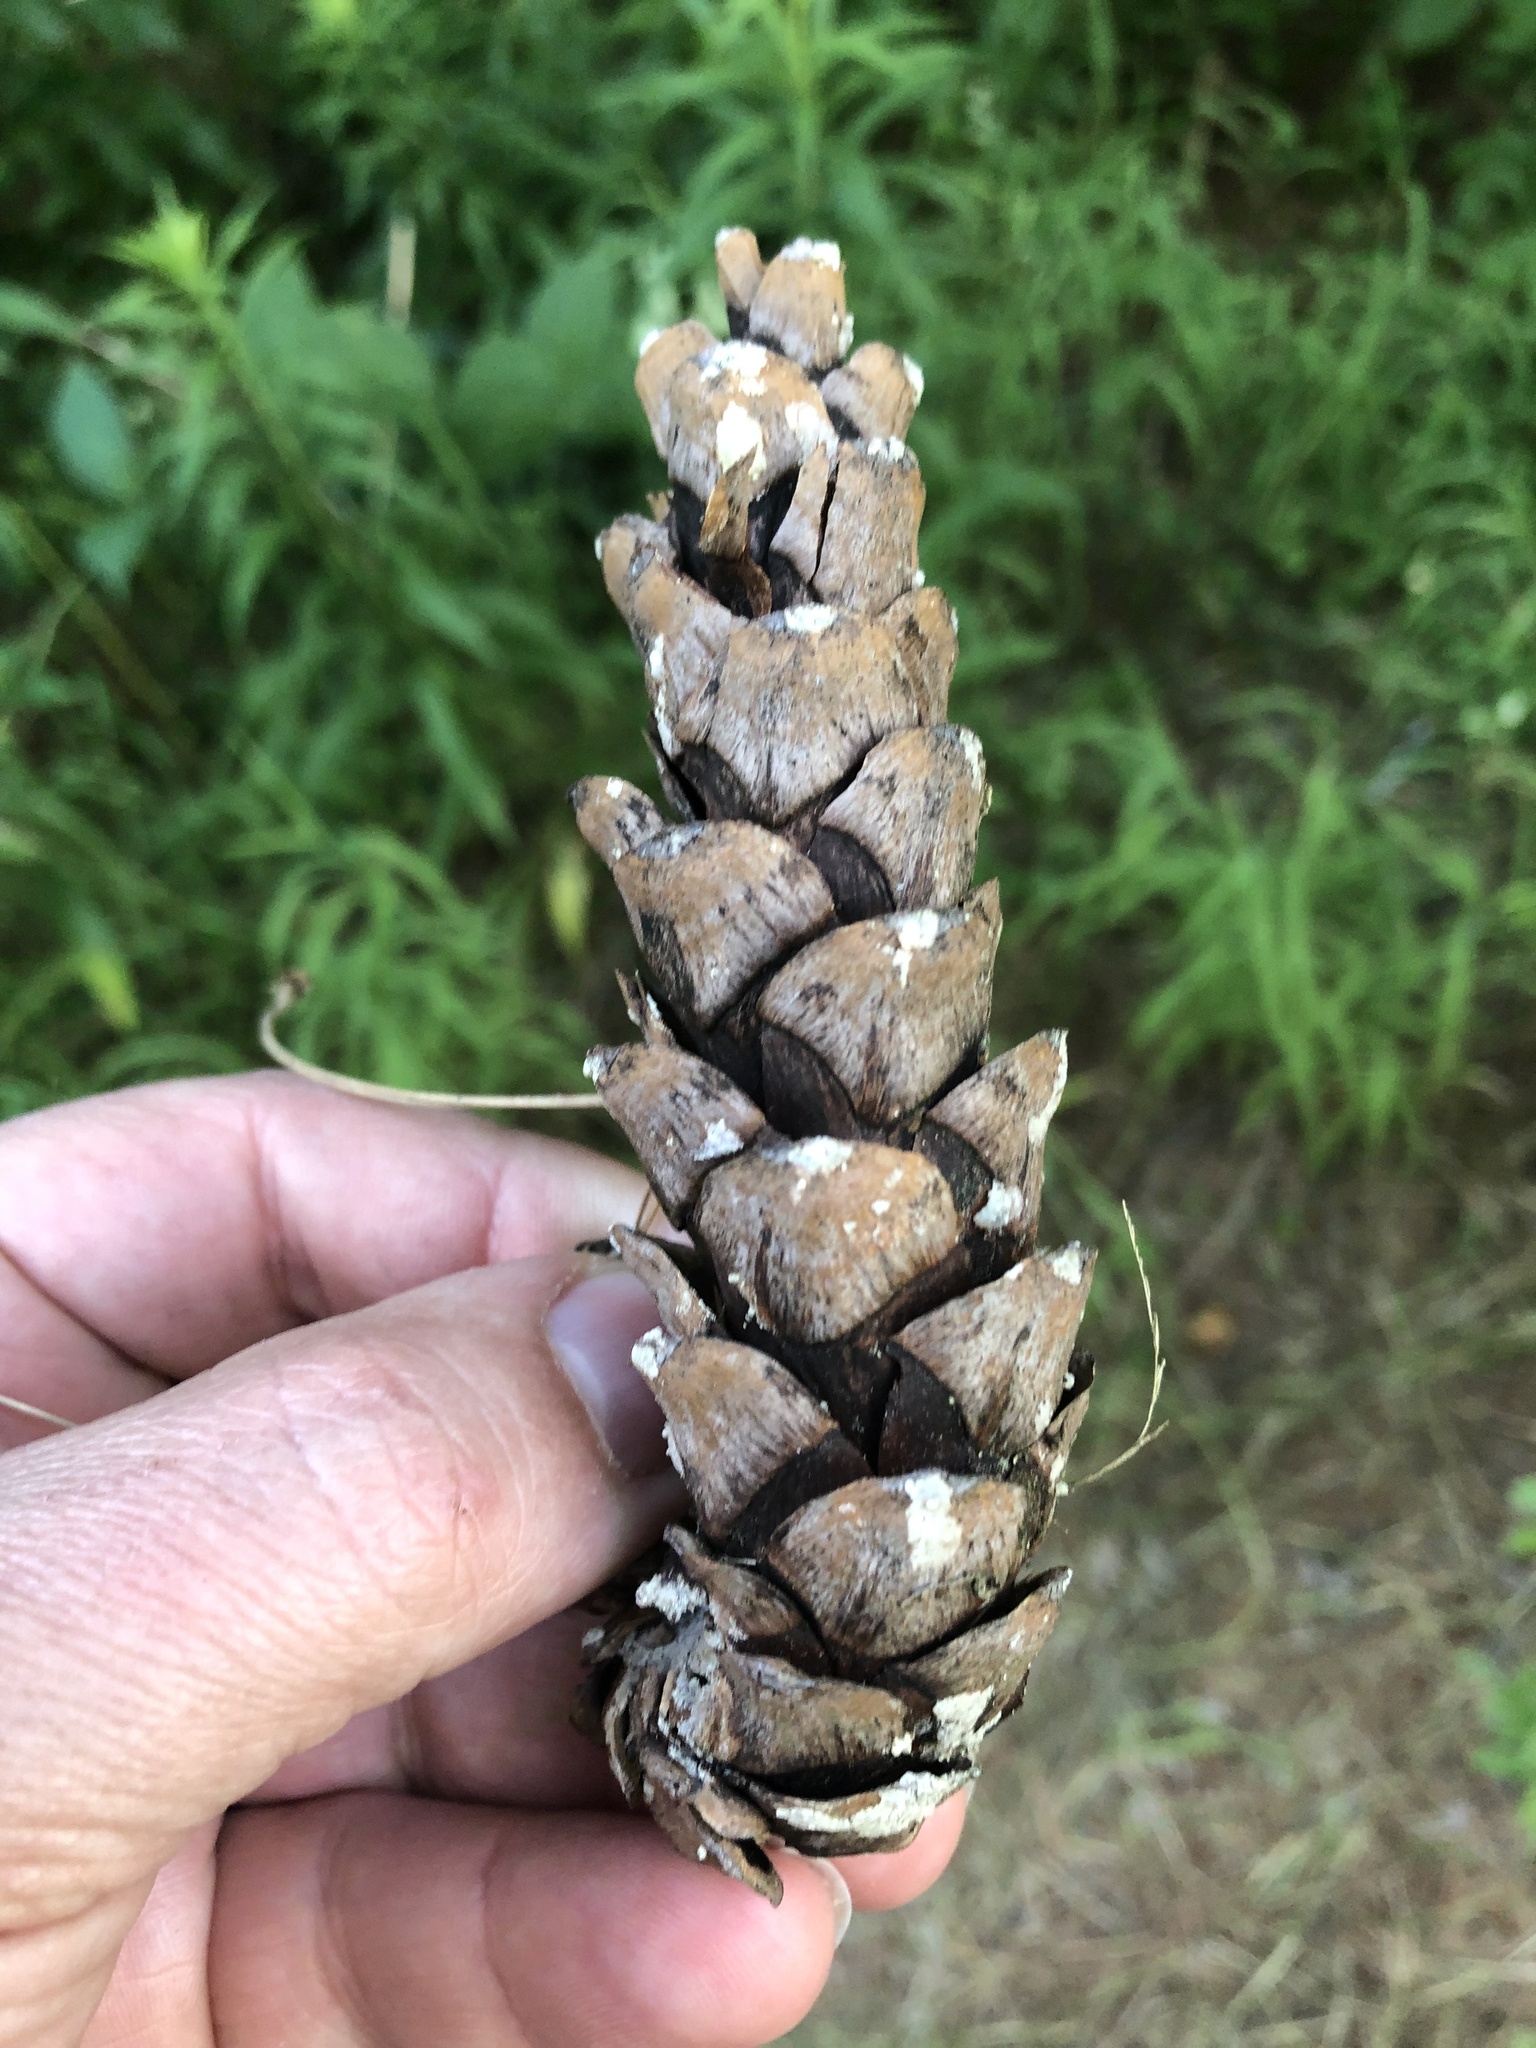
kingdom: Plantae
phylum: Tracheophyta
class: Pinopsida
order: Pinales
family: Pinaceae
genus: Pinus
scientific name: Pinus strobus
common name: Weymouth pine
